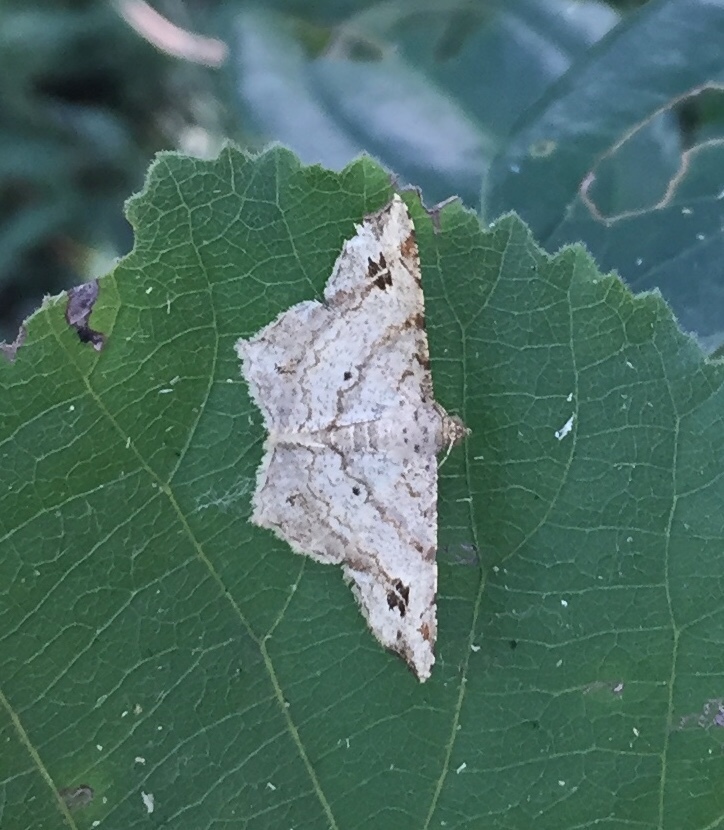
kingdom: Animalia
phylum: Arthropoda
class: Insecta
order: Lepidoptera
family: Geometridae
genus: Chiasmia
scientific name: Chiasmia natalensis
